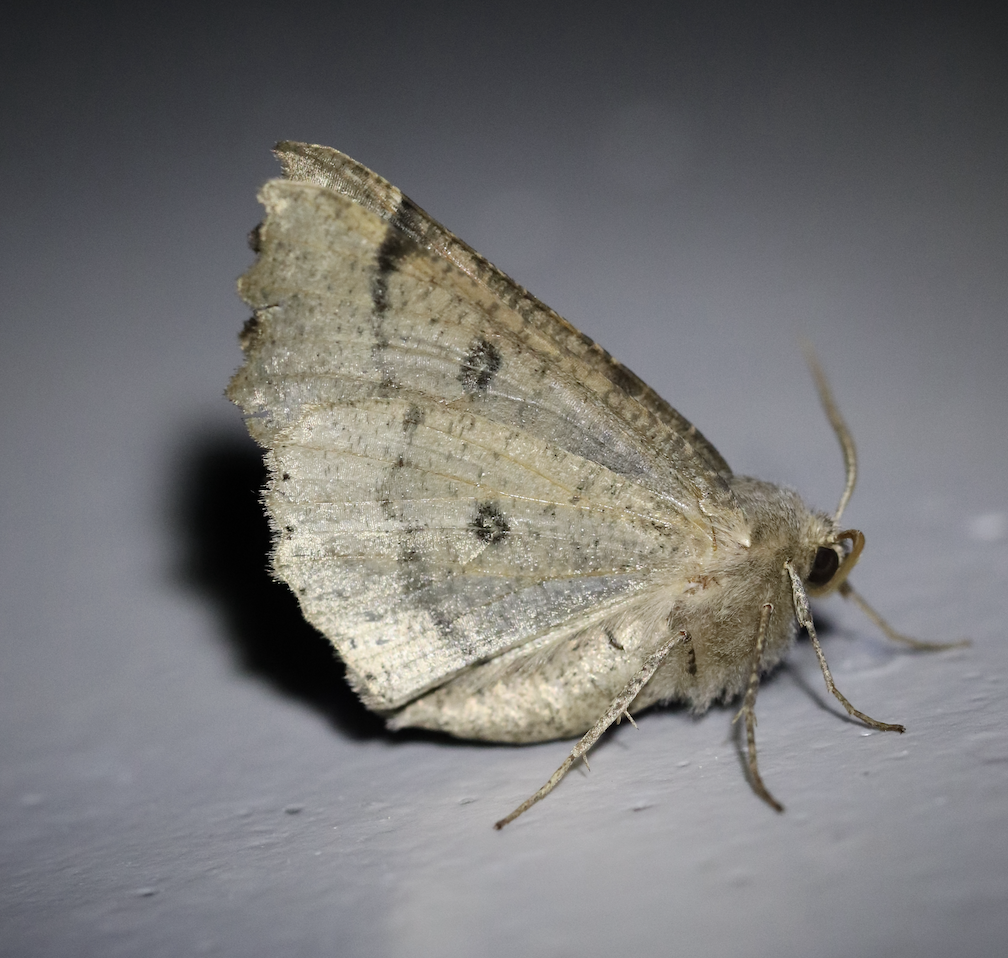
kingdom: Animalia
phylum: Arthropoda
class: Insecta
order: Lepidoptera
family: Geometridae
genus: Odontopera
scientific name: Odontopera bidentata
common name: Scalloped hazel
